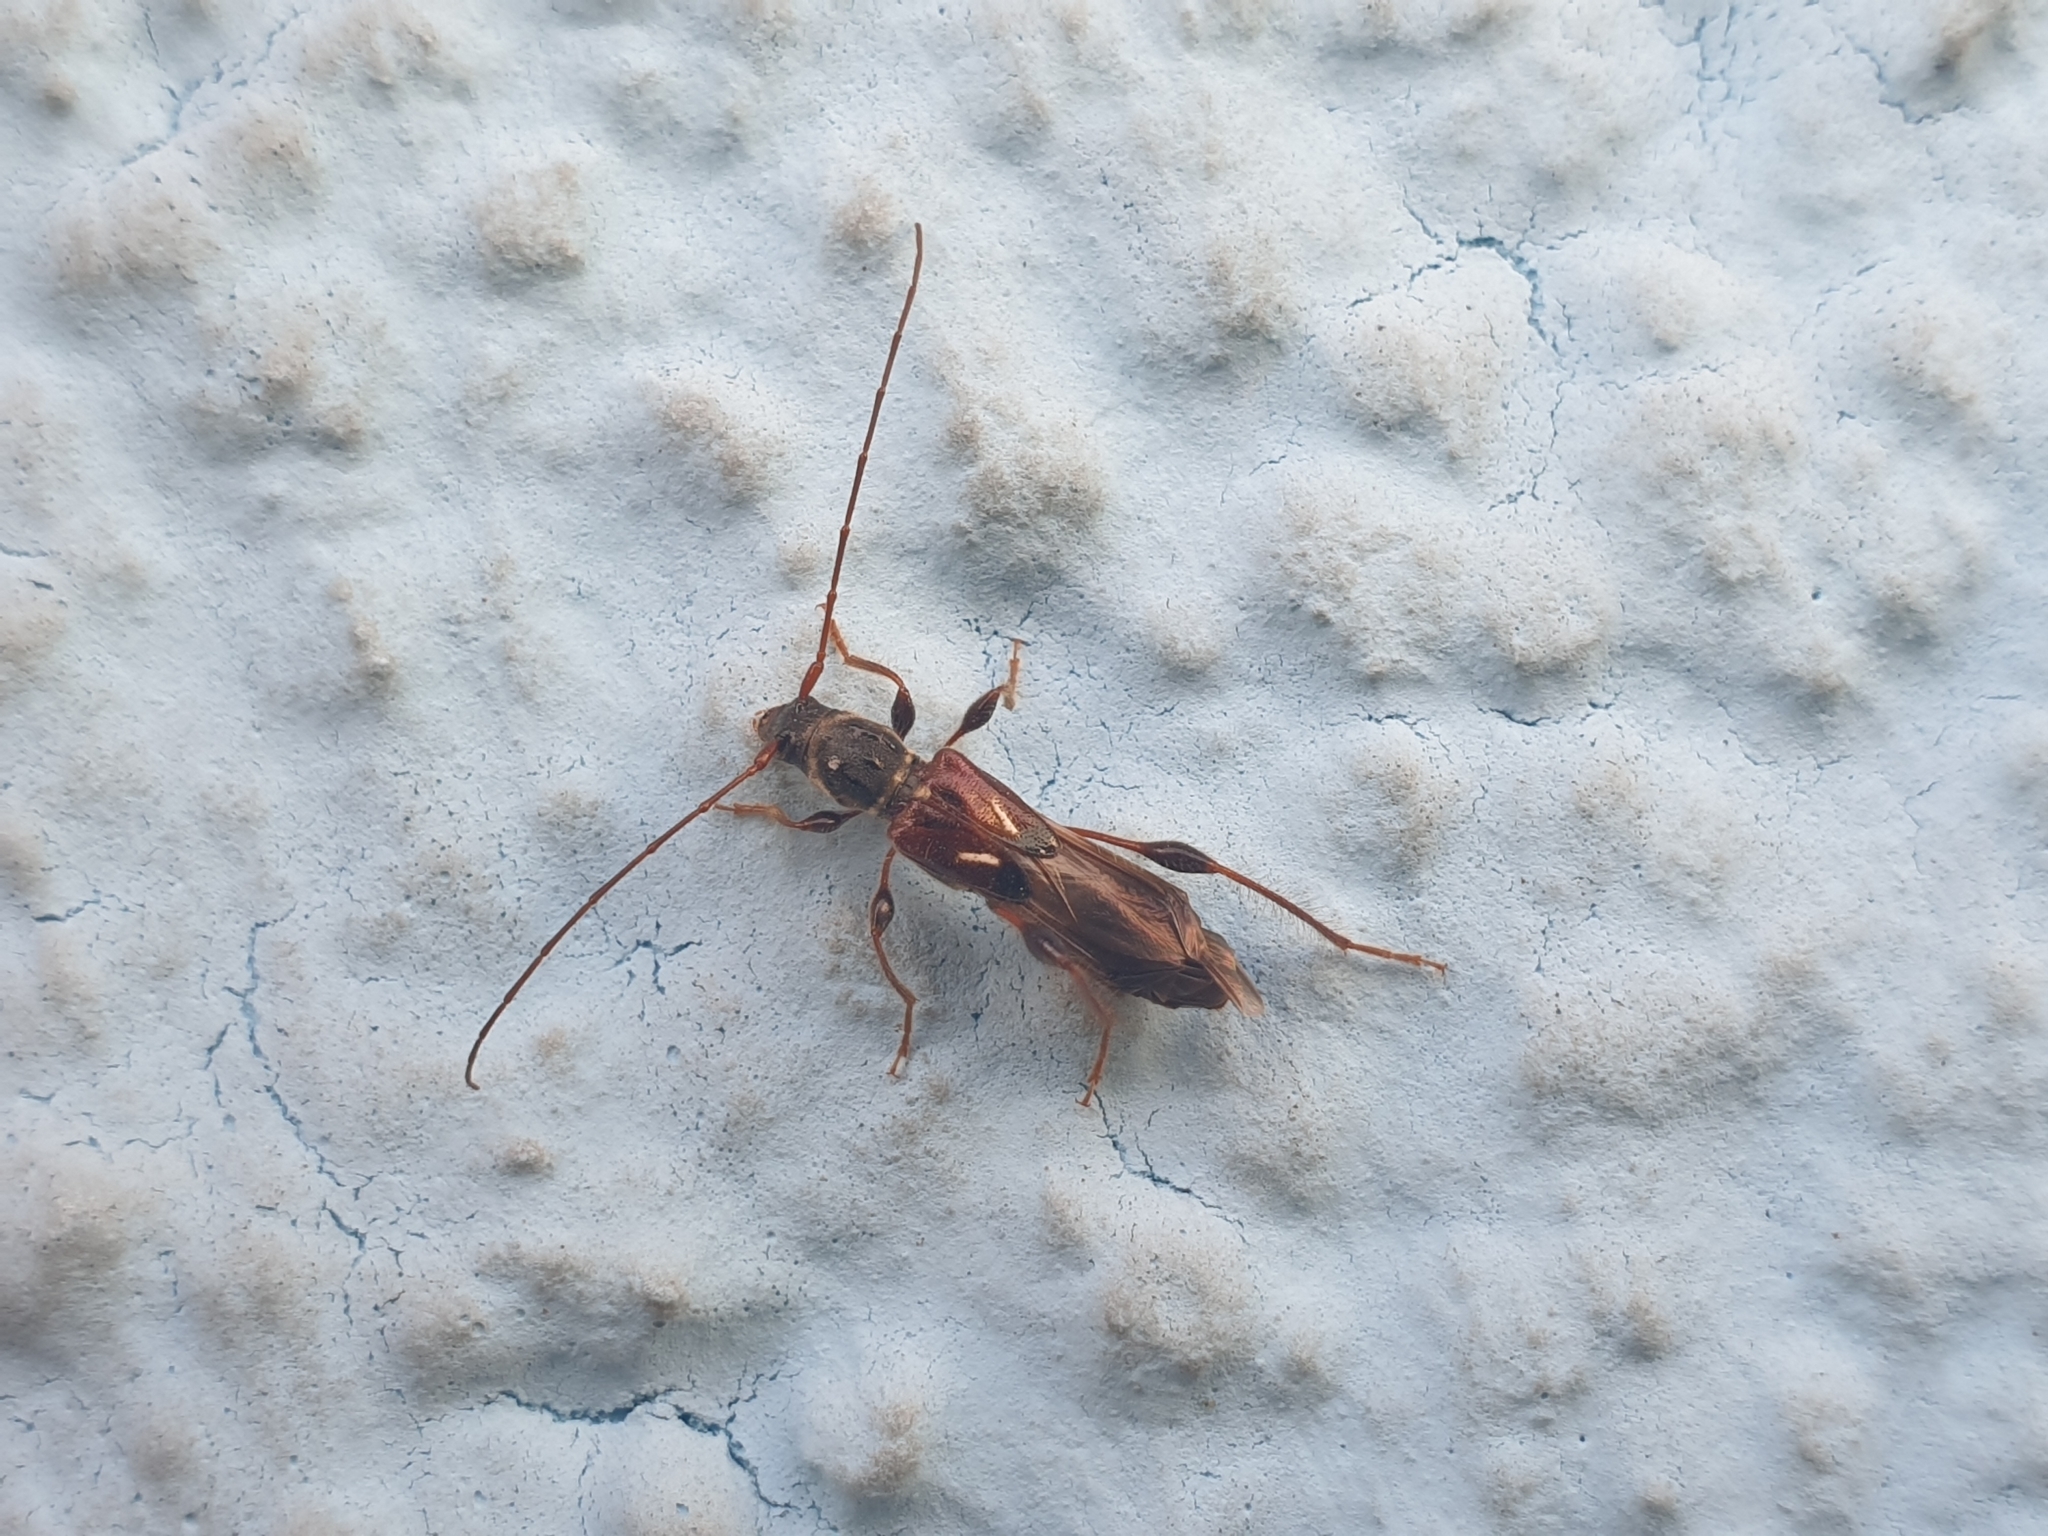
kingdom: Animalia
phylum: Arthropoda
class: Insecta
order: Coleoptera
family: Cerambycidae
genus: Molorchus
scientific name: Molorchus minor
